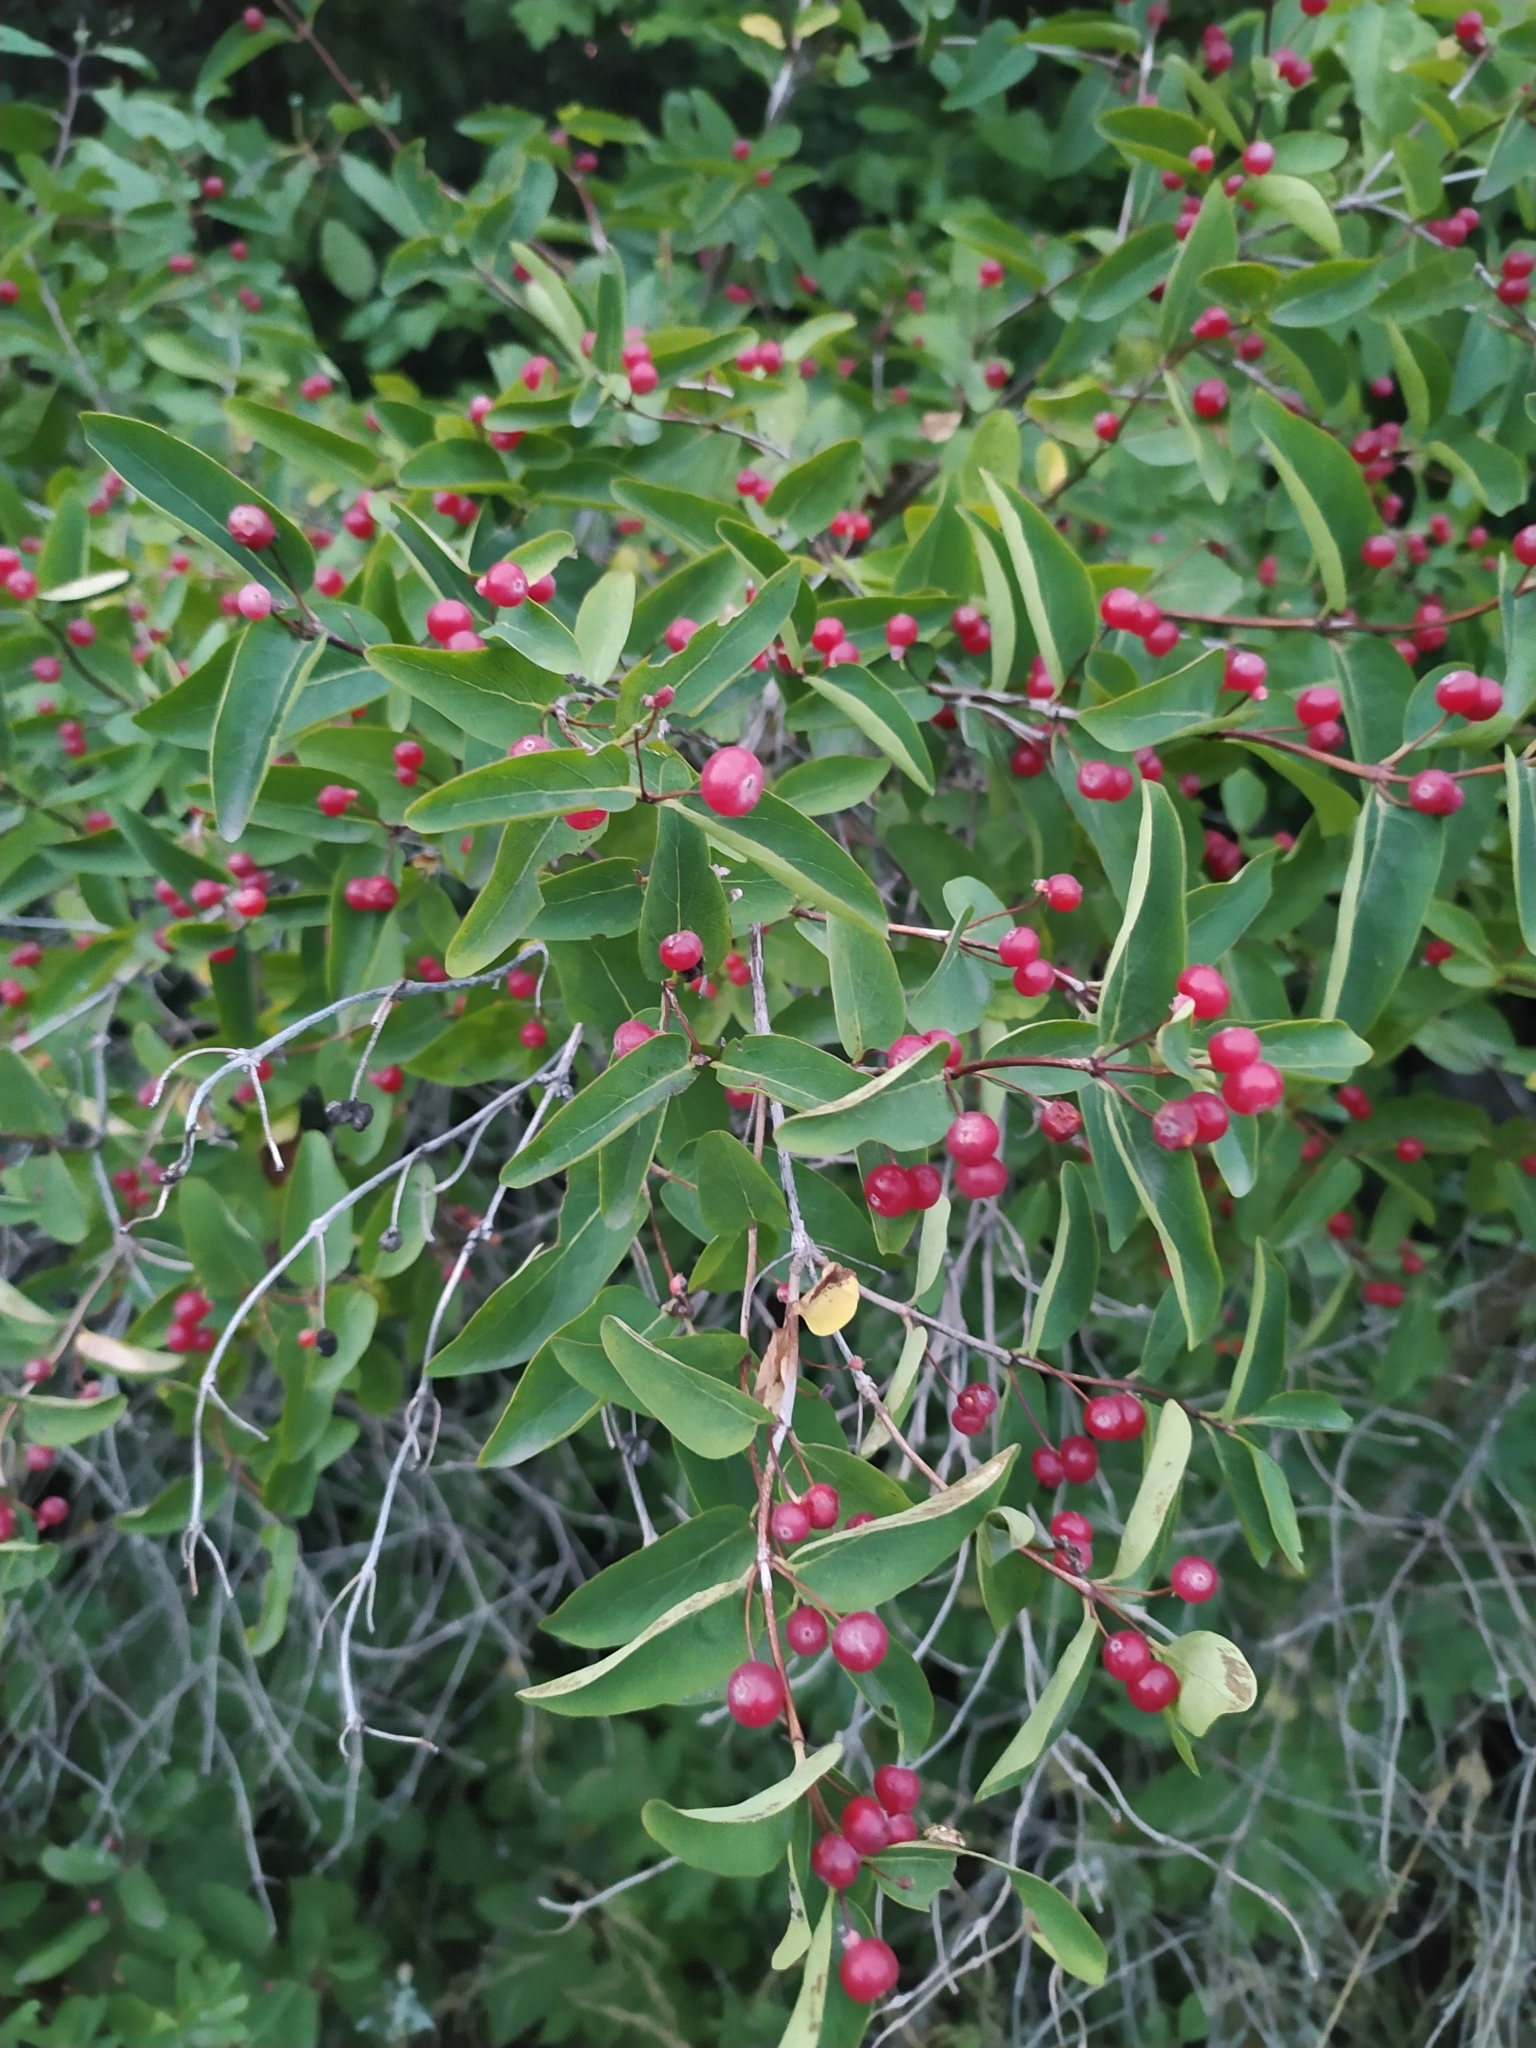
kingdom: Plantae
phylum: Tracheophyta
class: Magnoliopsida
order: Dipsacales
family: Caprifoliaceae
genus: Lonicera
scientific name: Lonicera tatarica
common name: Tatarian honeysuckle
